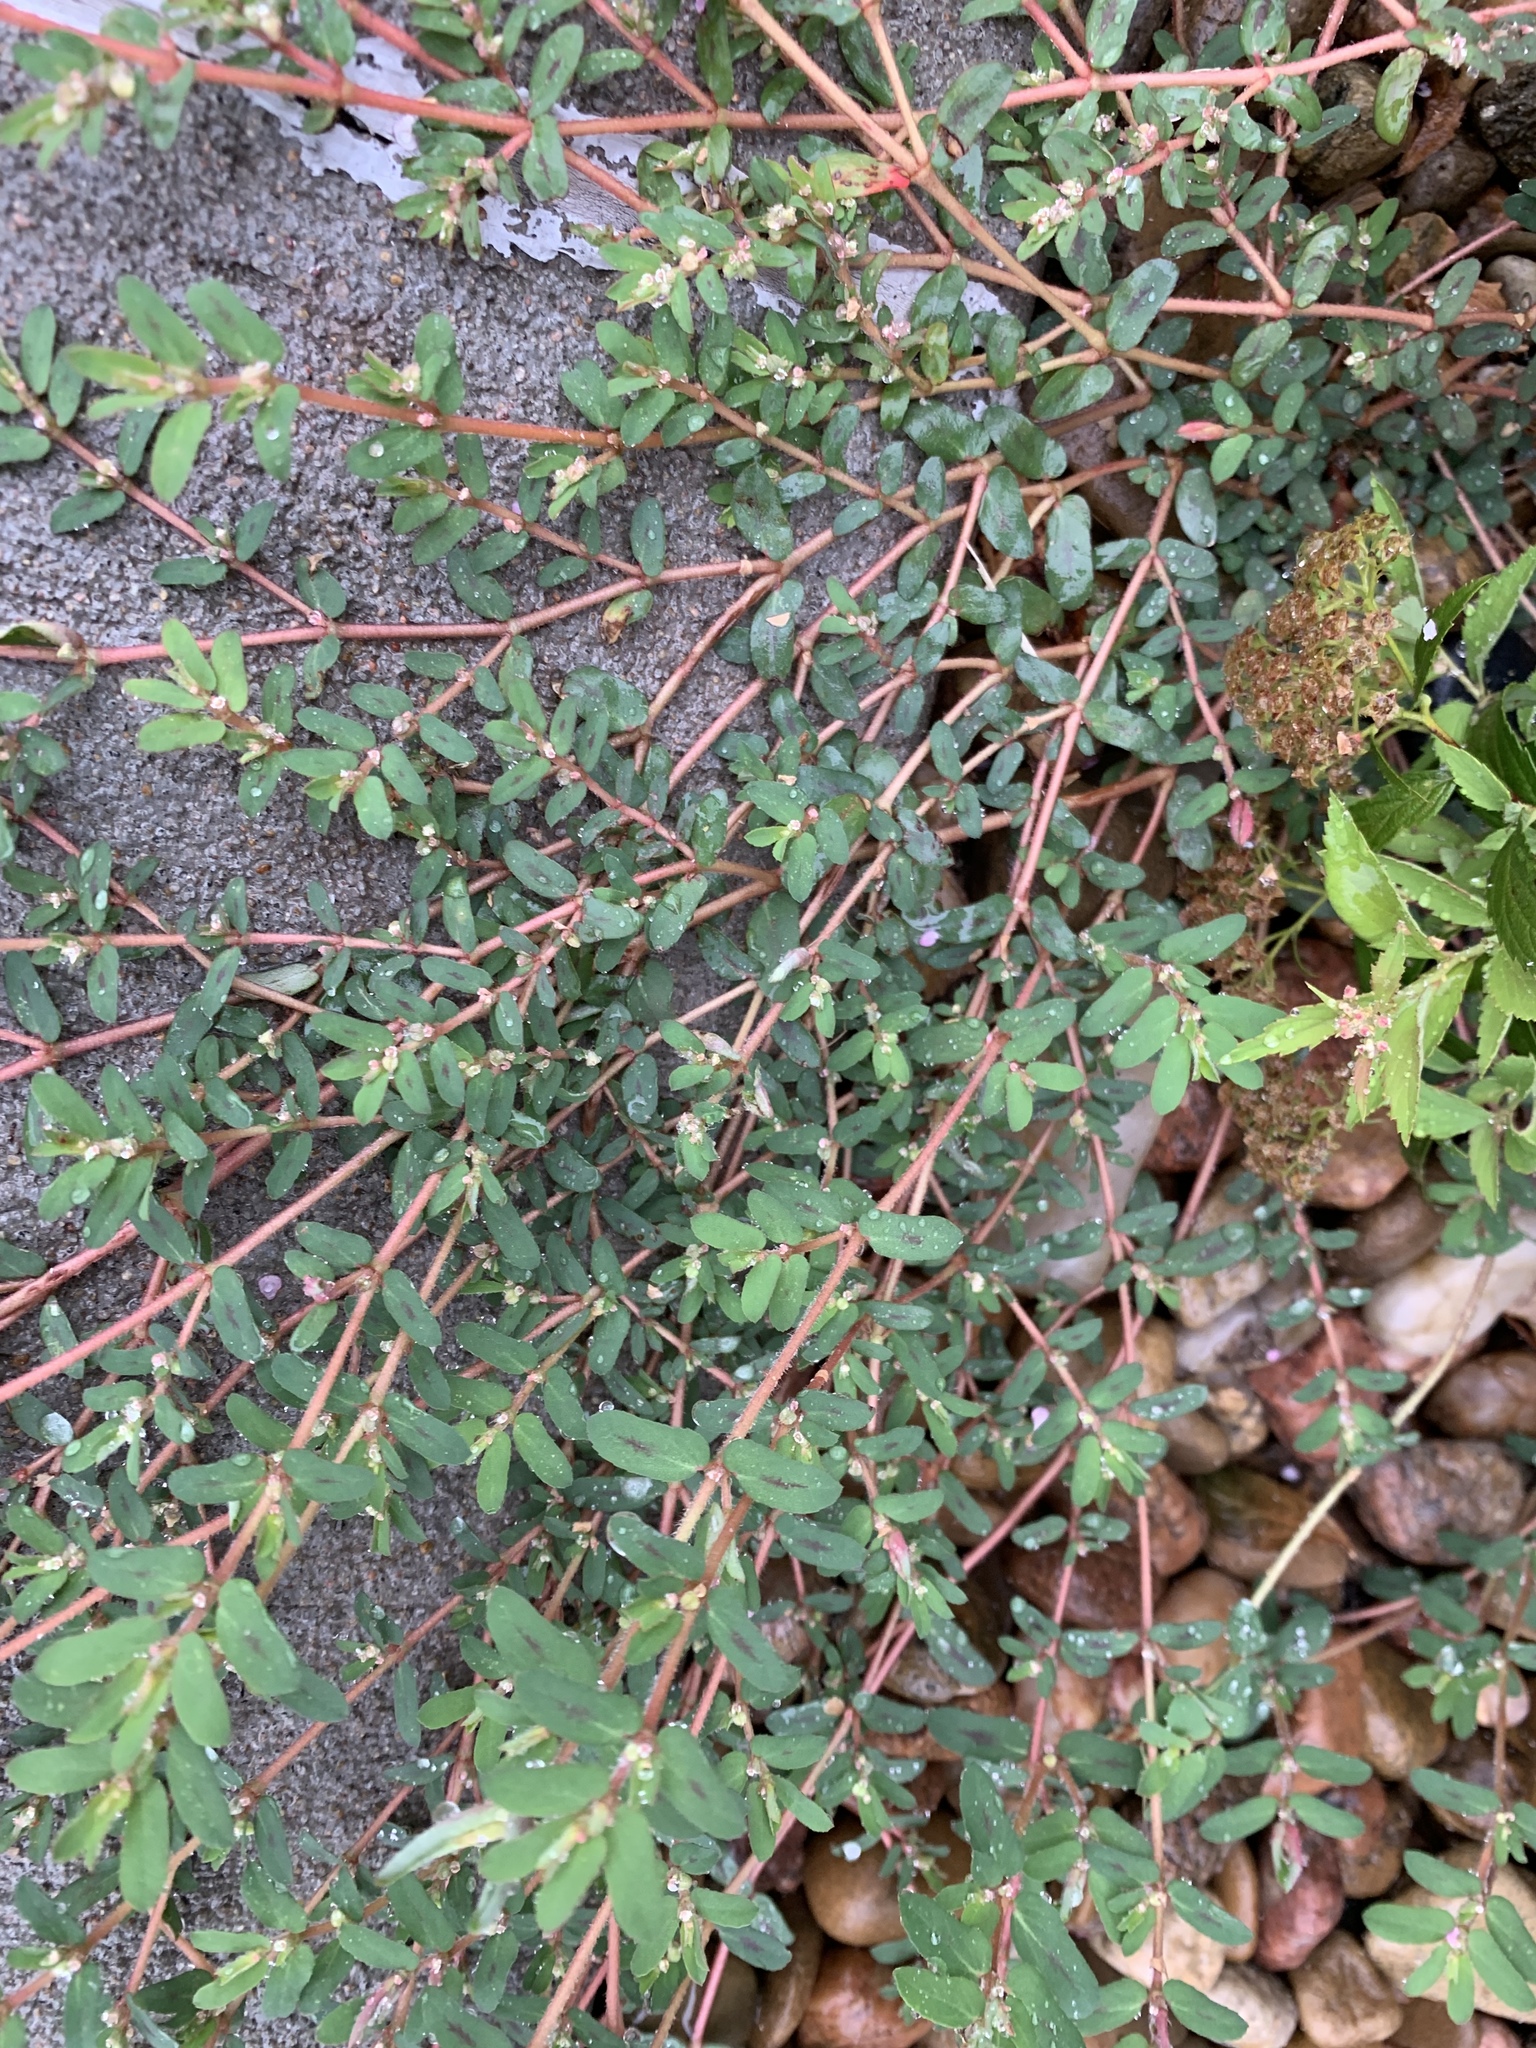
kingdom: Plantae
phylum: Tracheophyta
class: Magnoliopsida
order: Malpighiales
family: Euphorbiaceae
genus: Euphorbia
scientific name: Euphorbia maculata
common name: Spotted spurge
